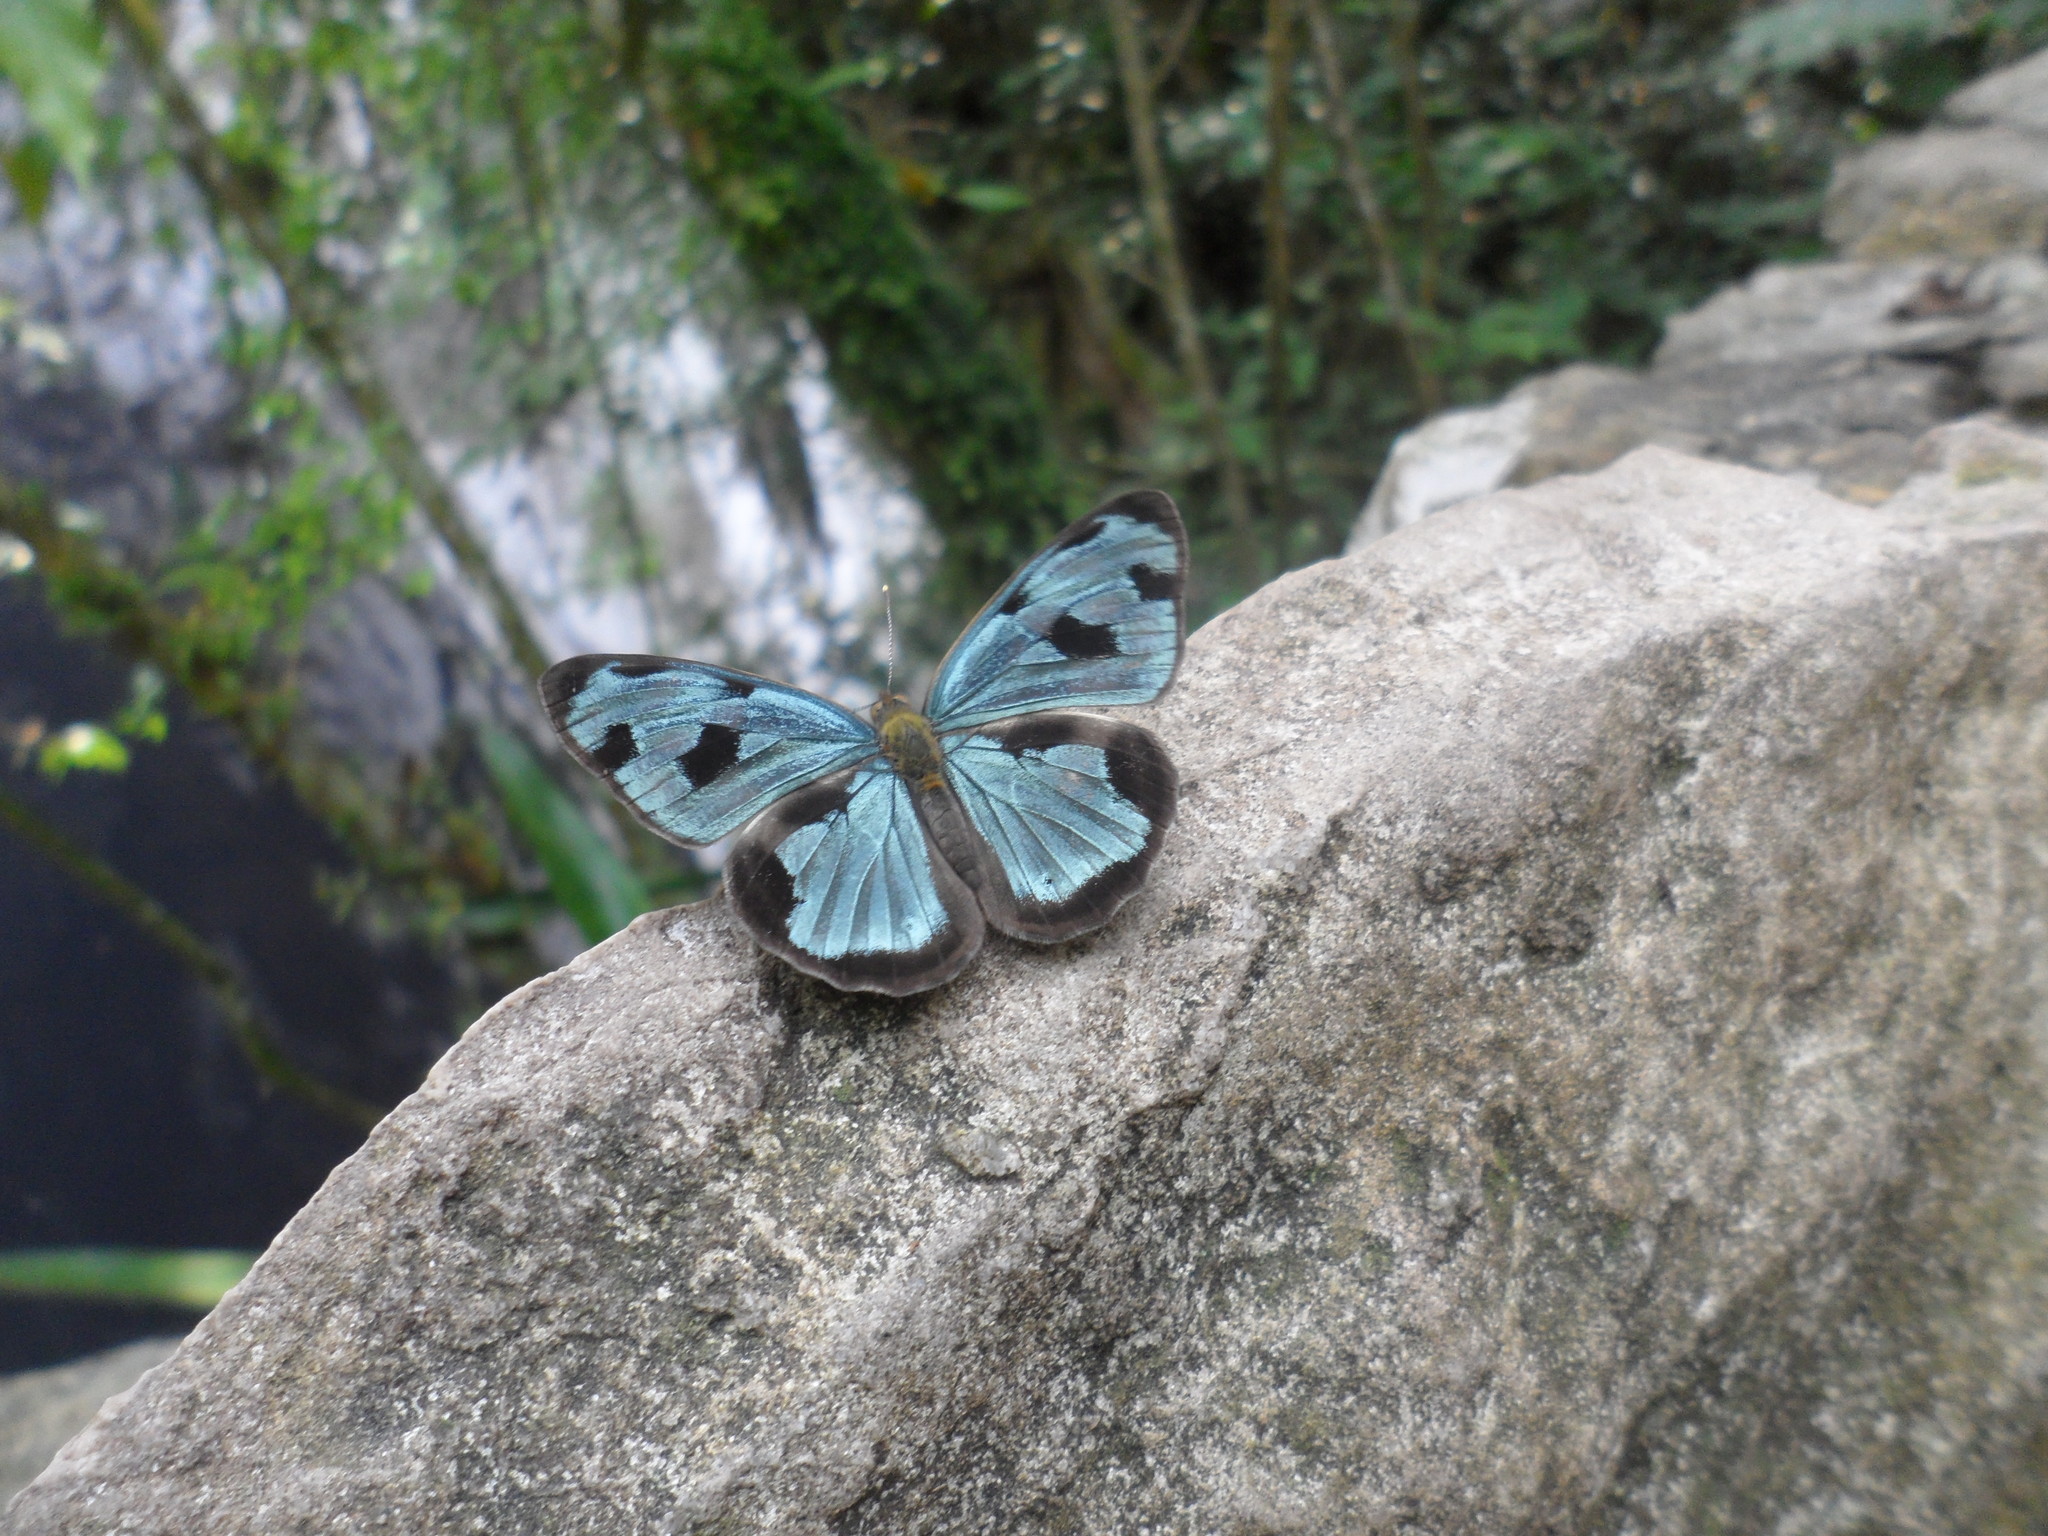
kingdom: Animalia
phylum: Arthropoda
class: Insecta
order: Lepidoptera
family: Nymphalidae
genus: Dynamine
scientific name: Dynamine mylitta
